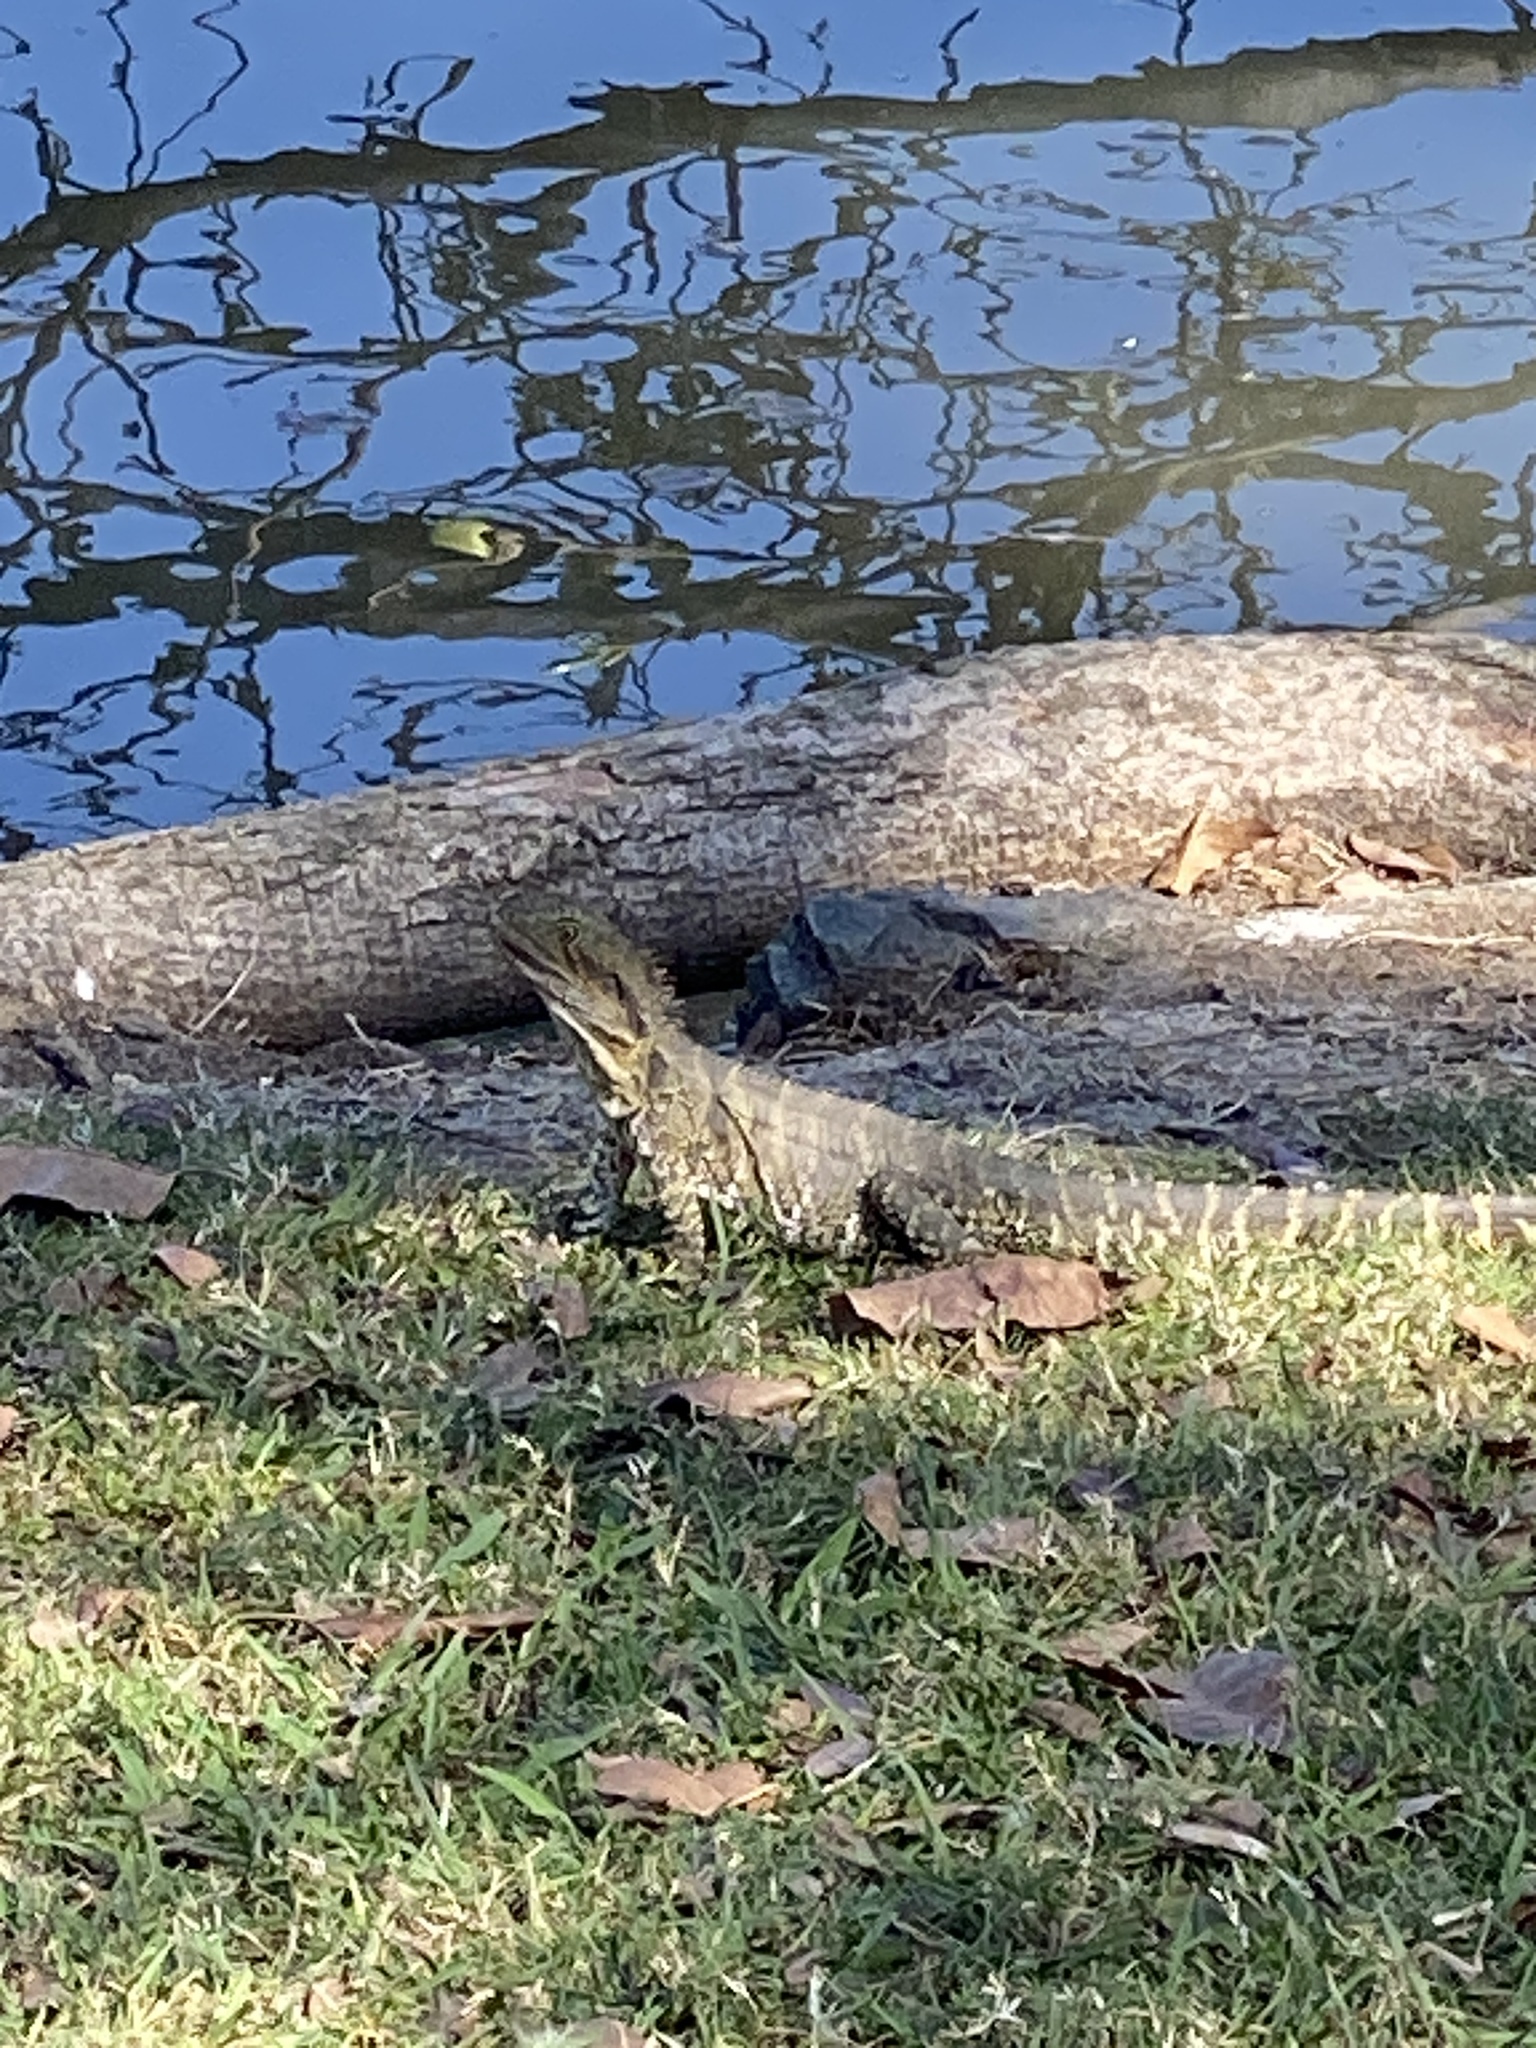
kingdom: Animalia
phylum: Chordata
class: Squamata
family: Agamidae
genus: Intellagama
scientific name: Intellagama lesueurii
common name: Eastern water dragon
